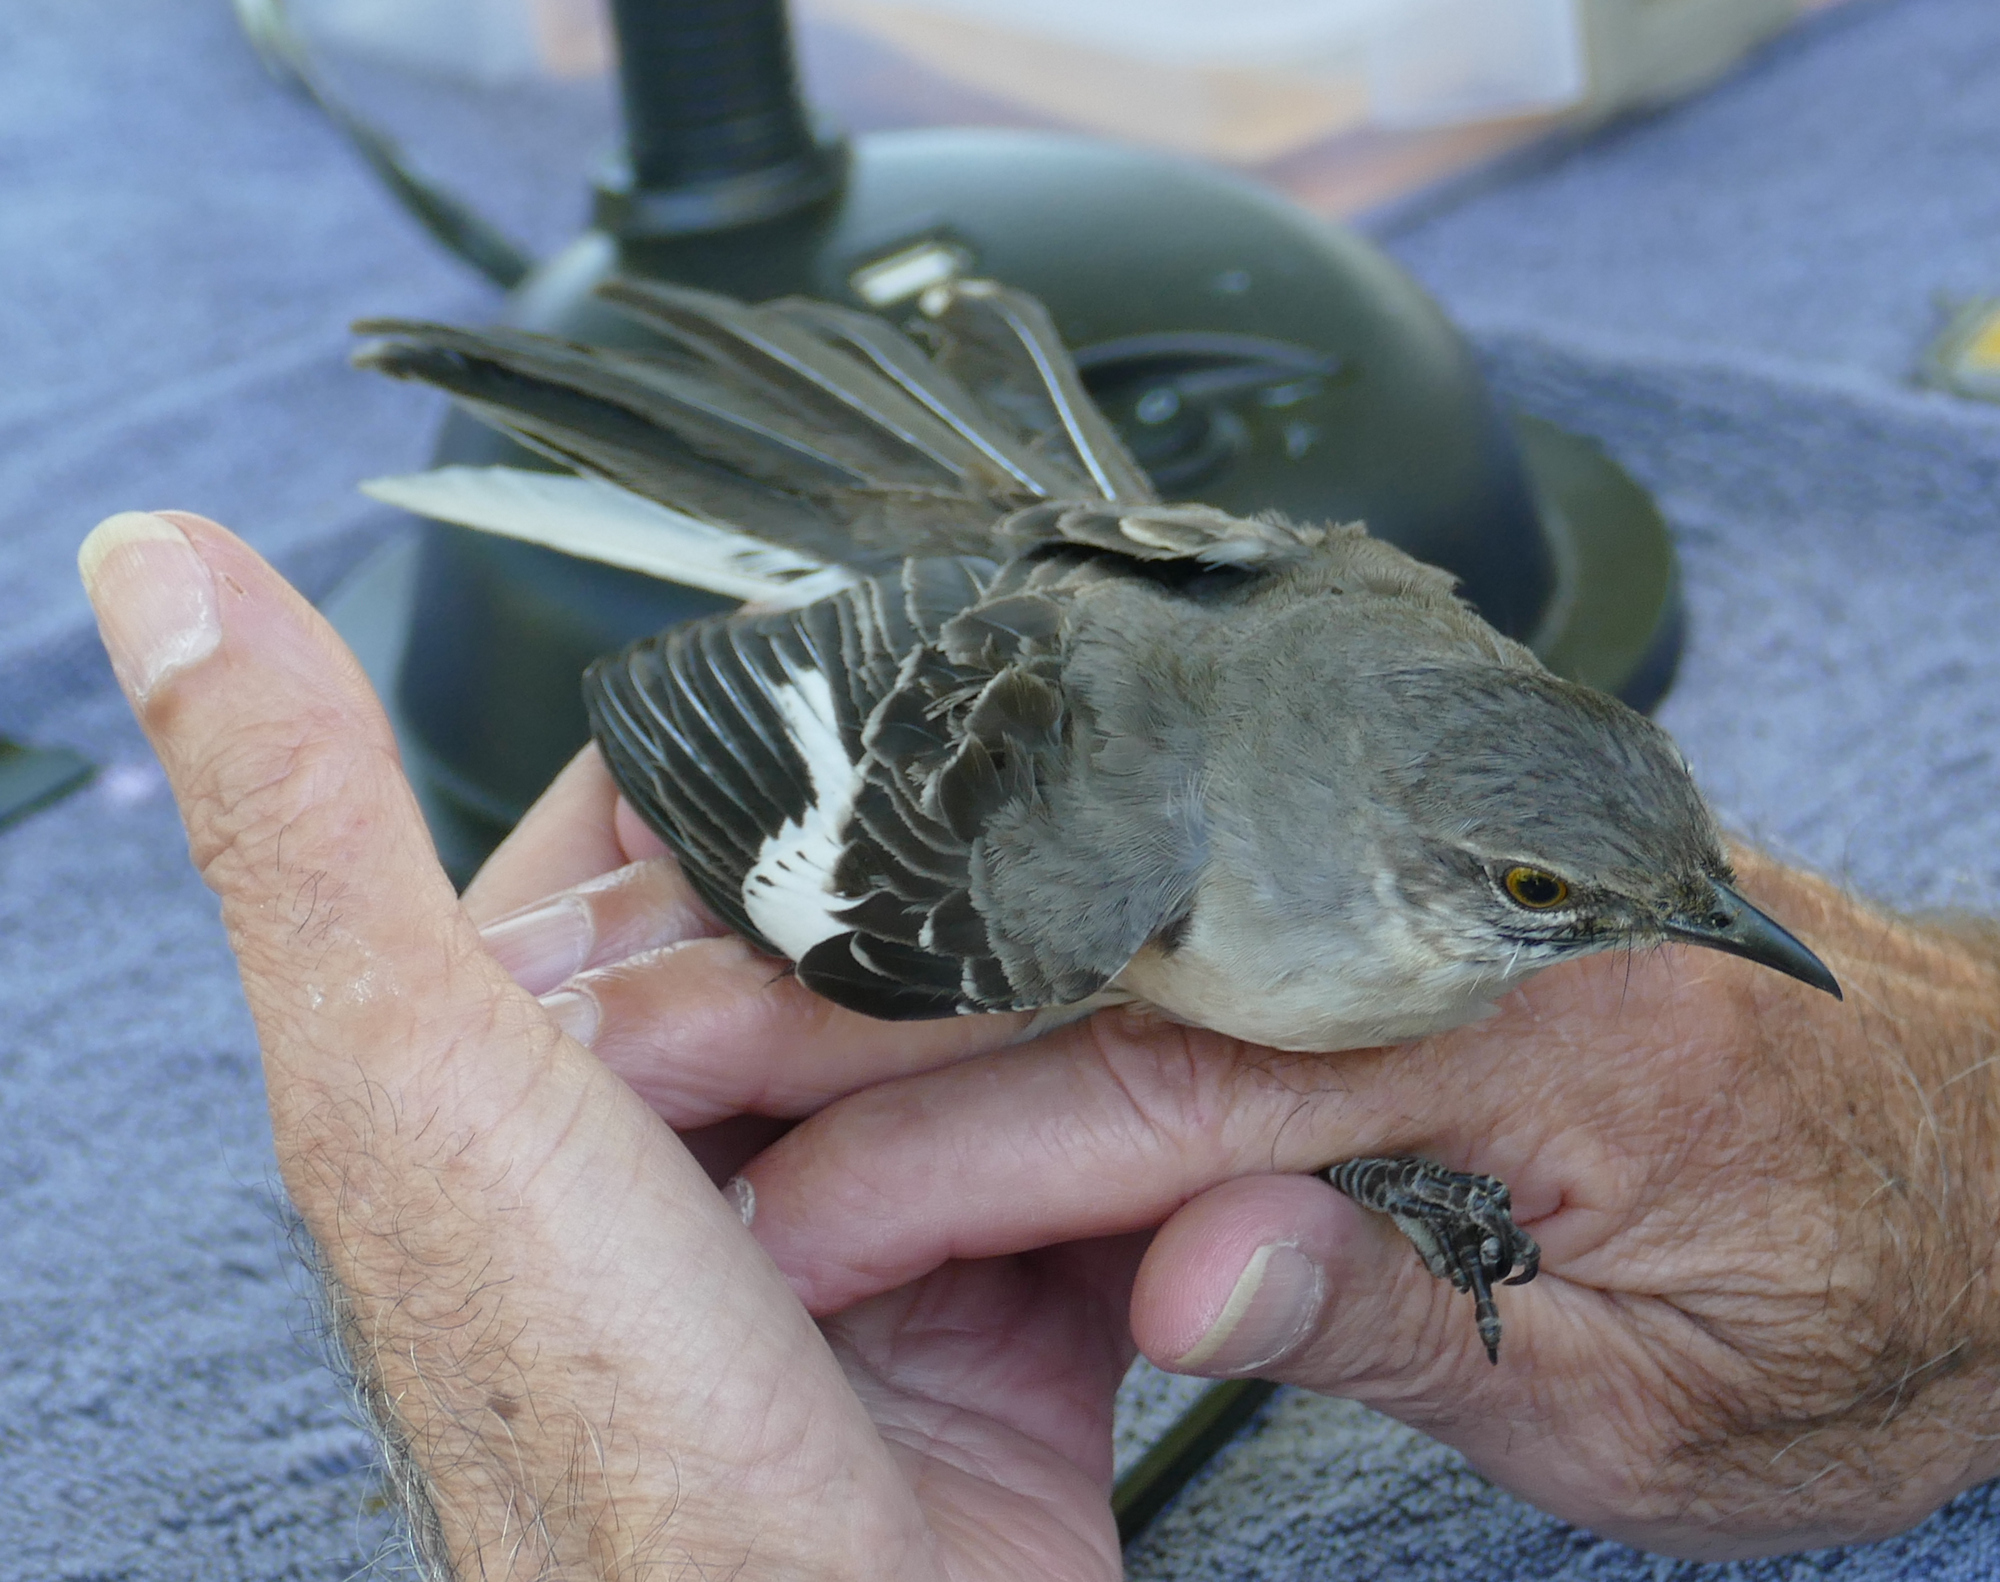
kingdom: Animalia
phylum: Chordata
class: Aves
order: Passeriformes
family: Mimidae
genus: Mimus
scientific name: Mimus polyglottos
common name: Northern mockingbird
